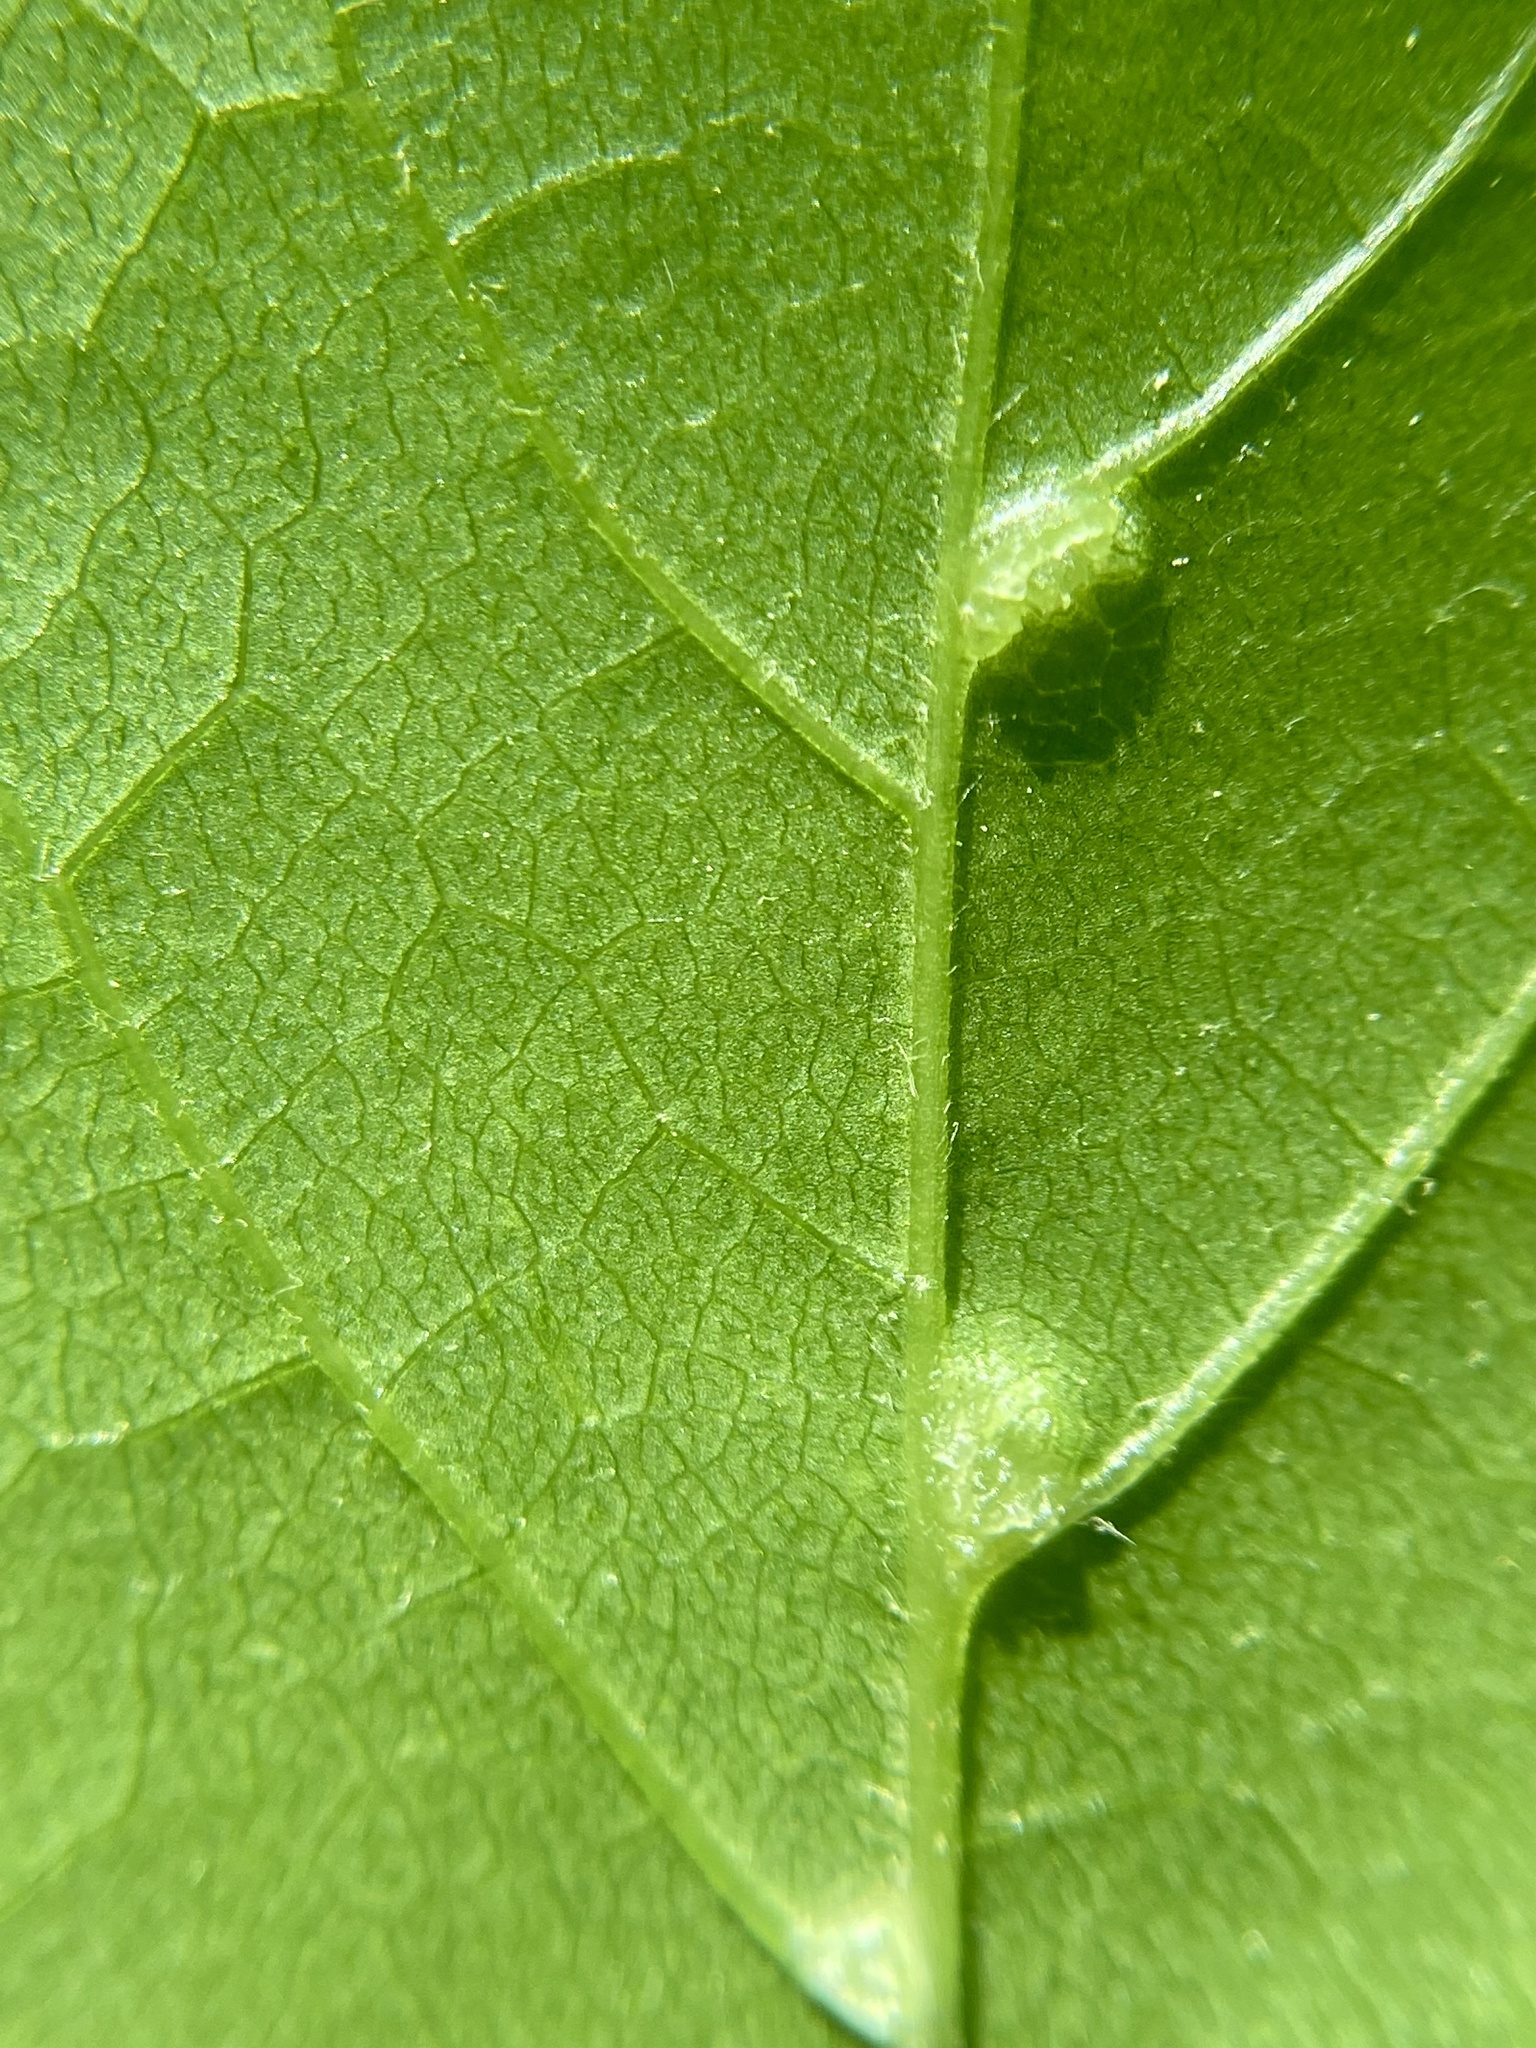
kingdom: Animalia
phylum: Arthropoda
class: Arachnida
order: Trombidiformes
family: Eriophyidae
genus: Cenalox
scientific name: Cenalox
